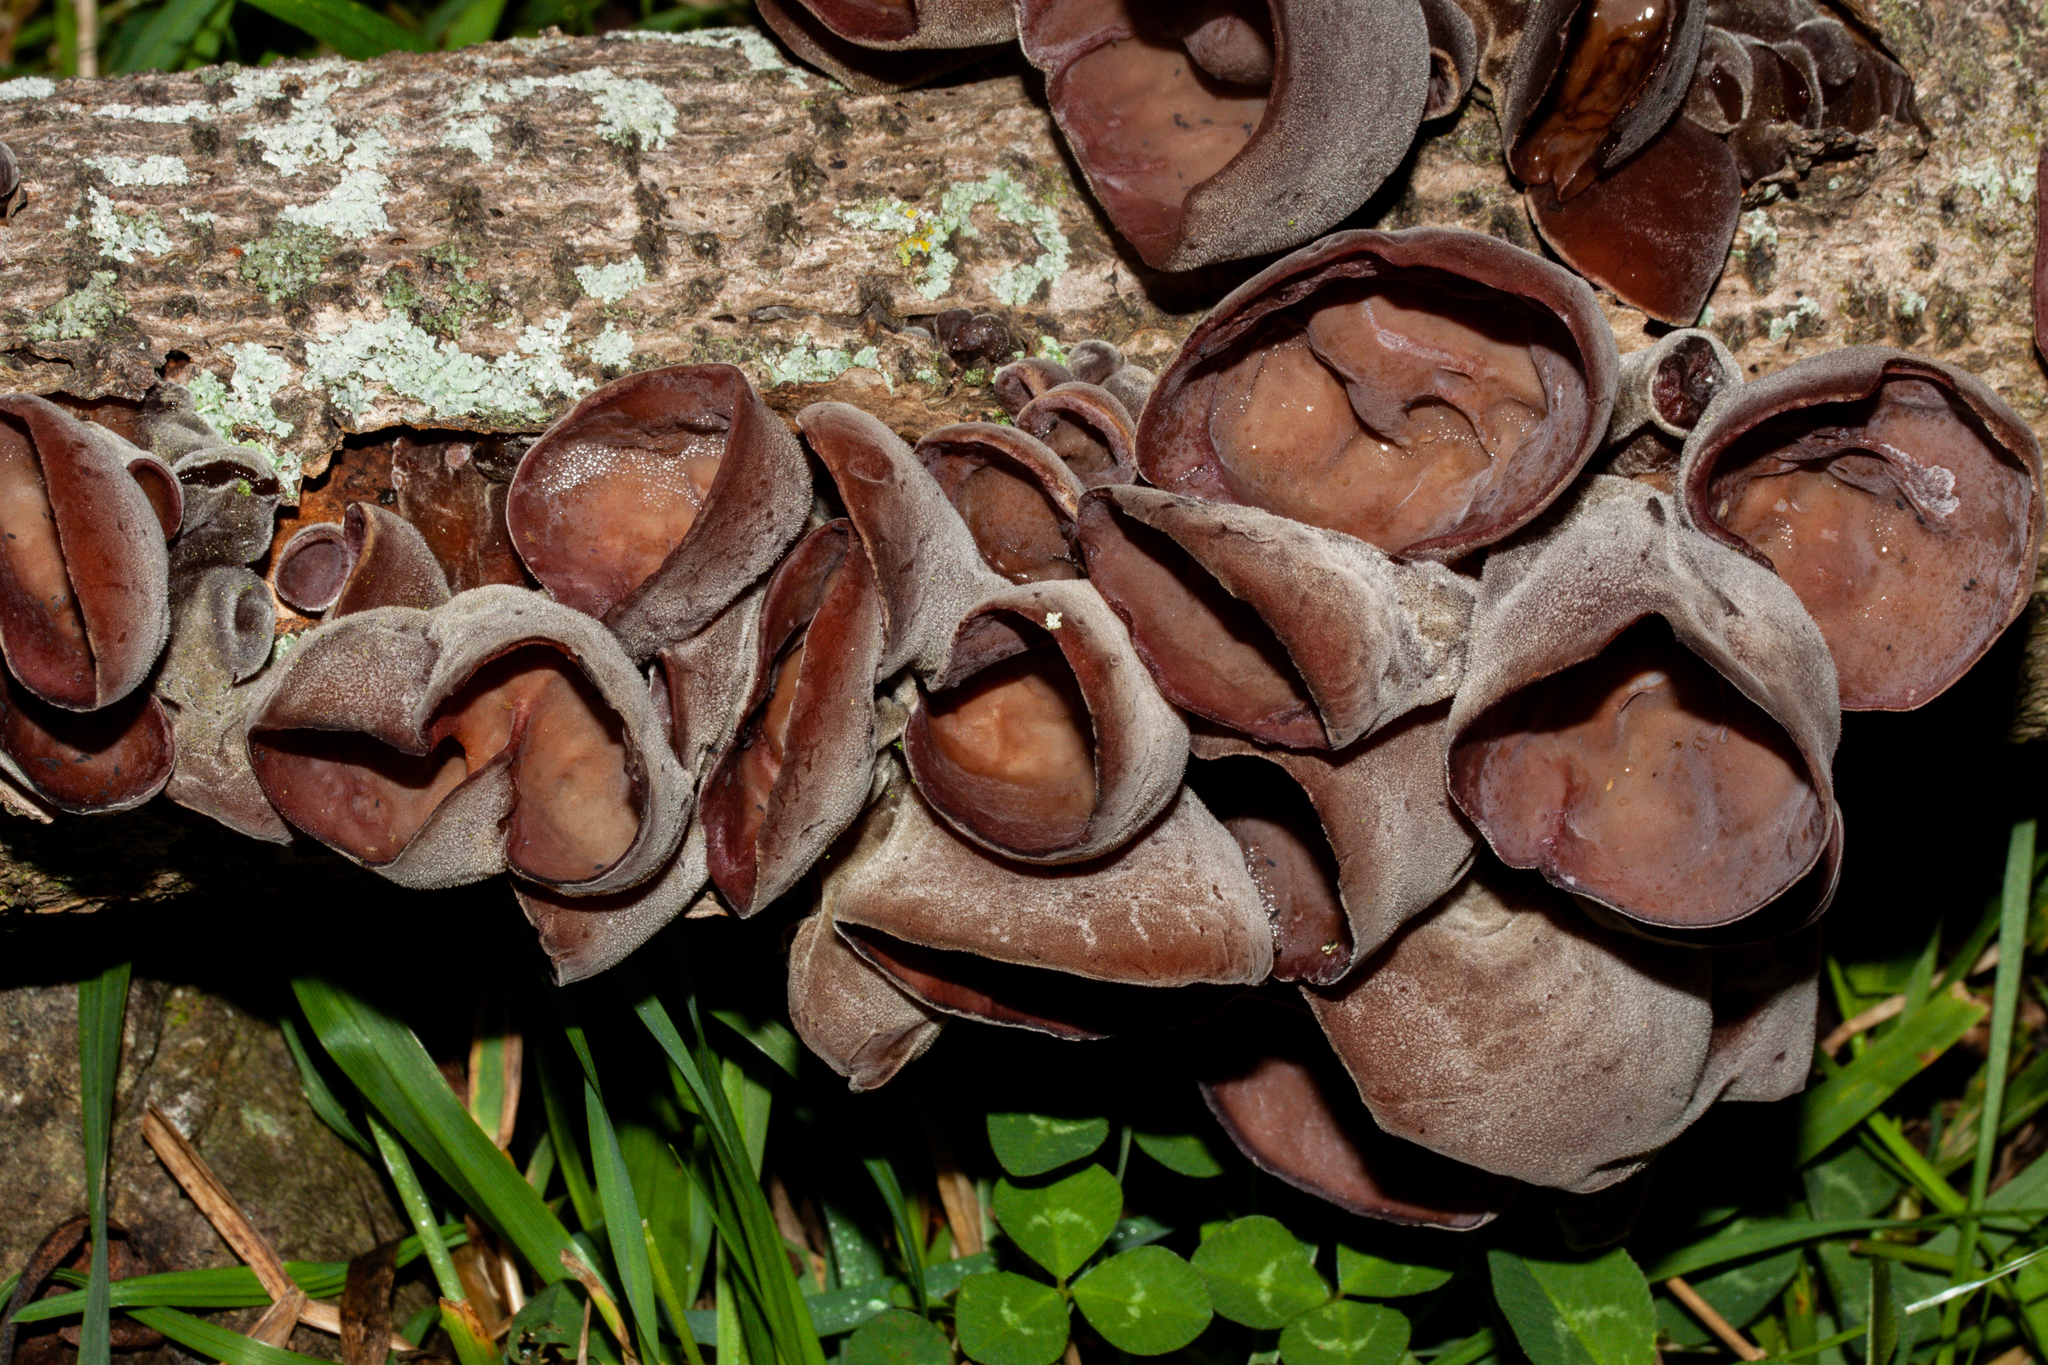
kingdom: Fungi
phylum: Basidiomycota
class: Agaricomycetes
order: Auriculariales
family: Auriculariaceae
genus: Auricularia
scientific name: Auricularia cornea
